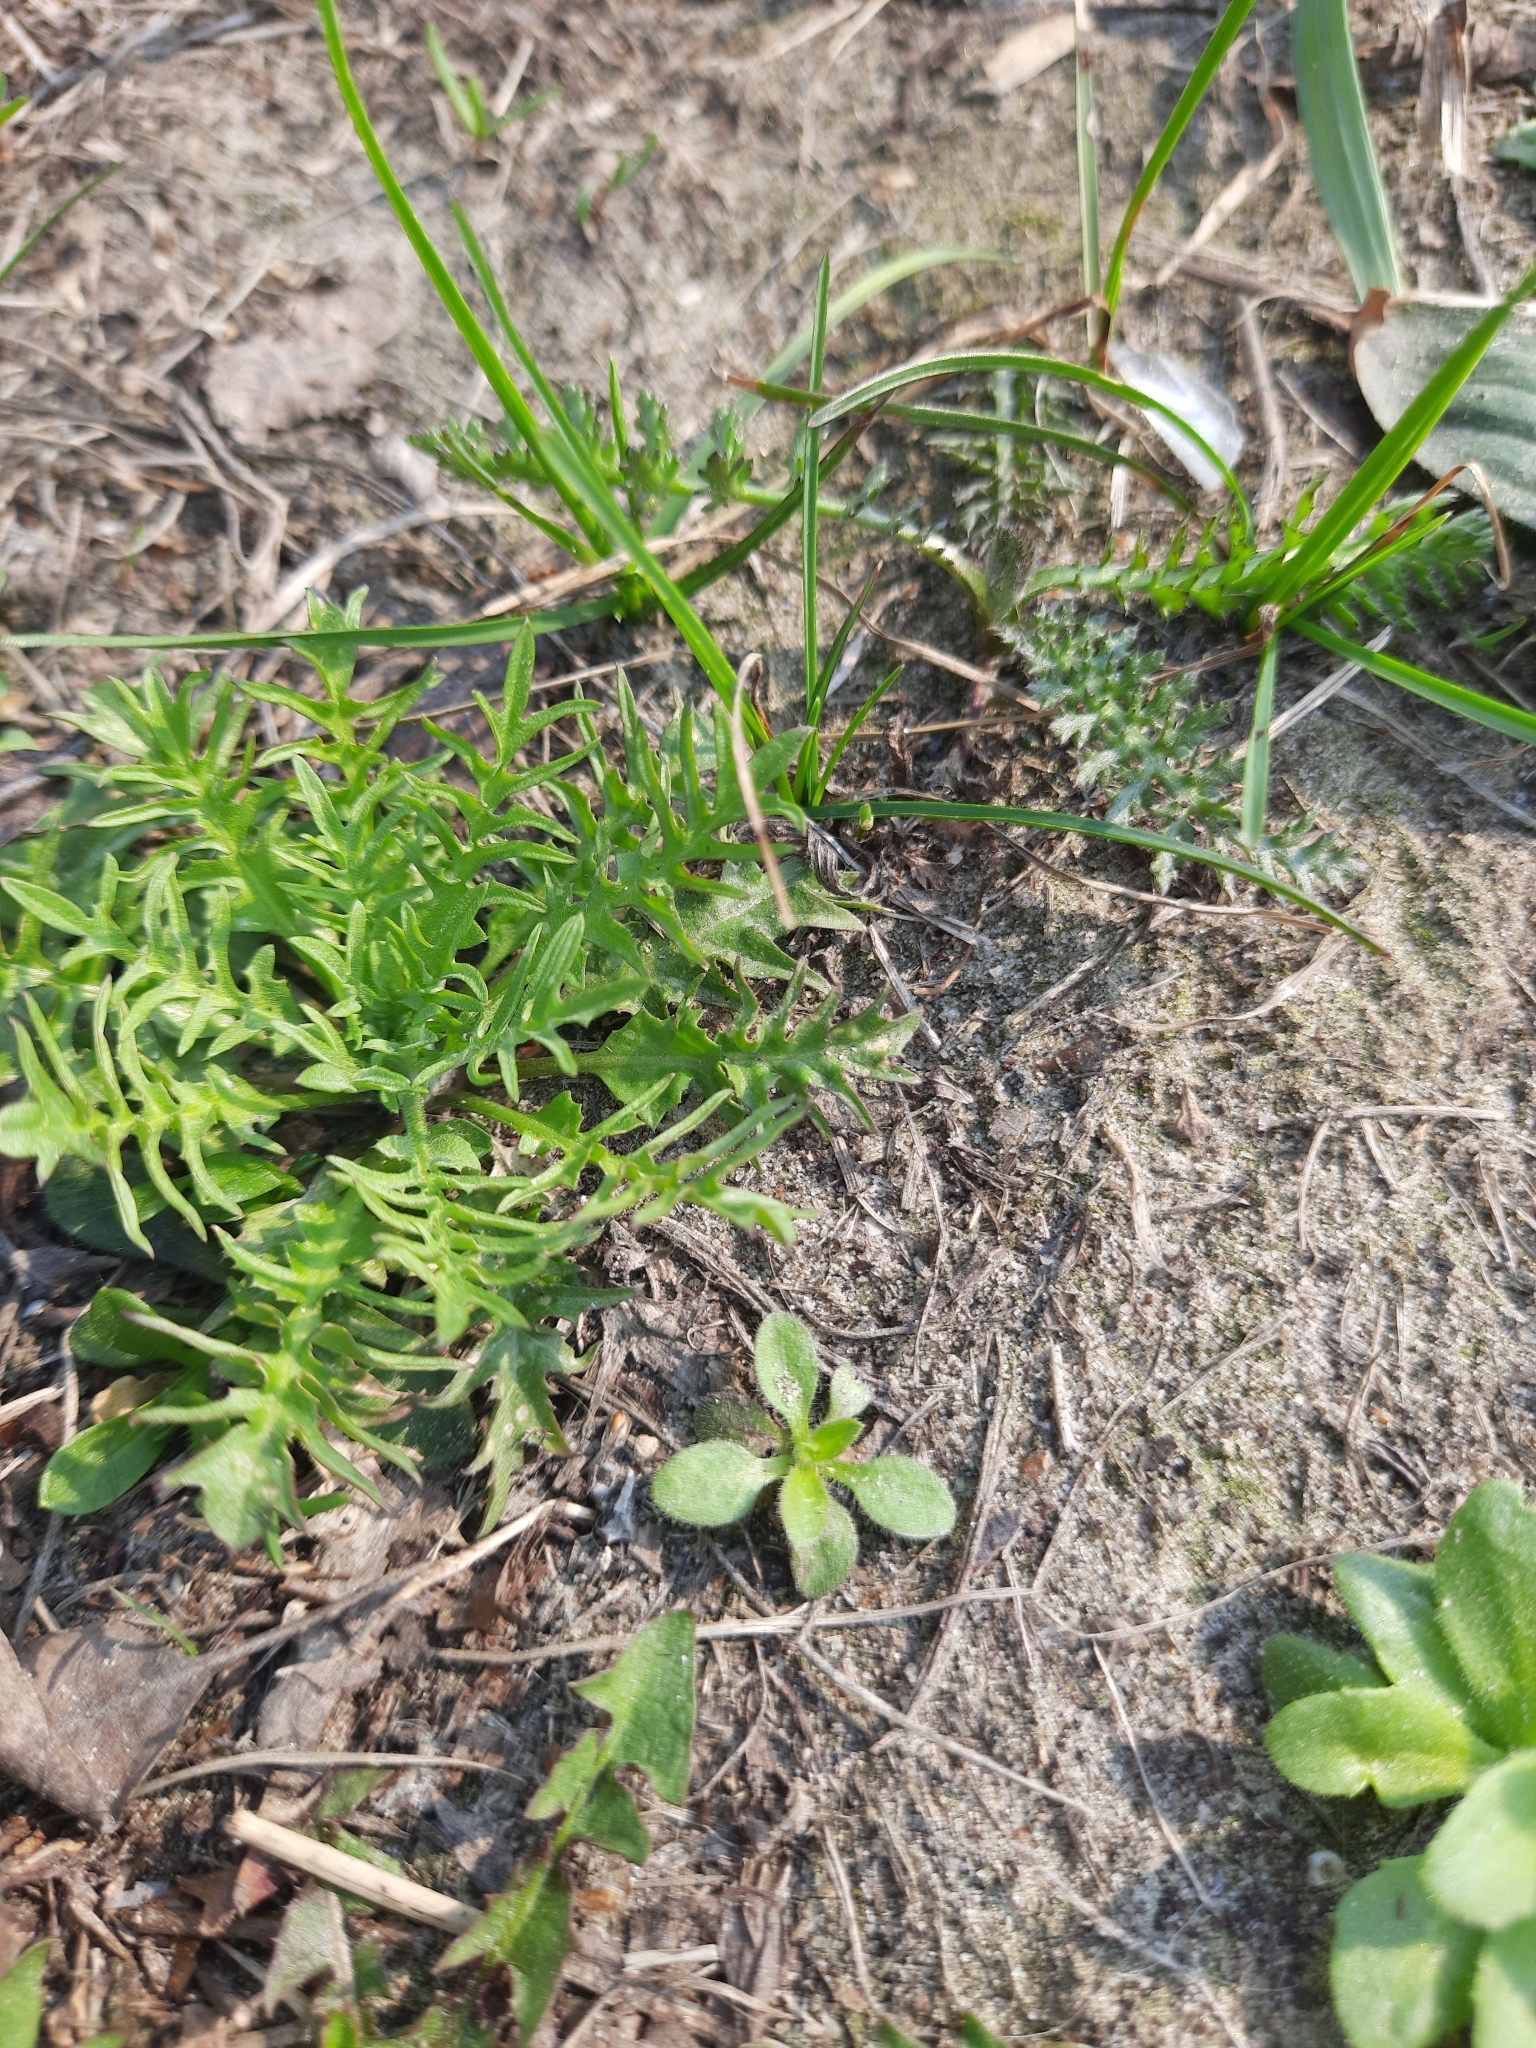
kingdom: Plantae
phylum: Tracheophyta
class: Magnoliopsida
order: Brassicales
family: Brassicaceae
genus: Capsella
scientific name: Capsella bursa-pastoris
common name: Shepherd's purse
